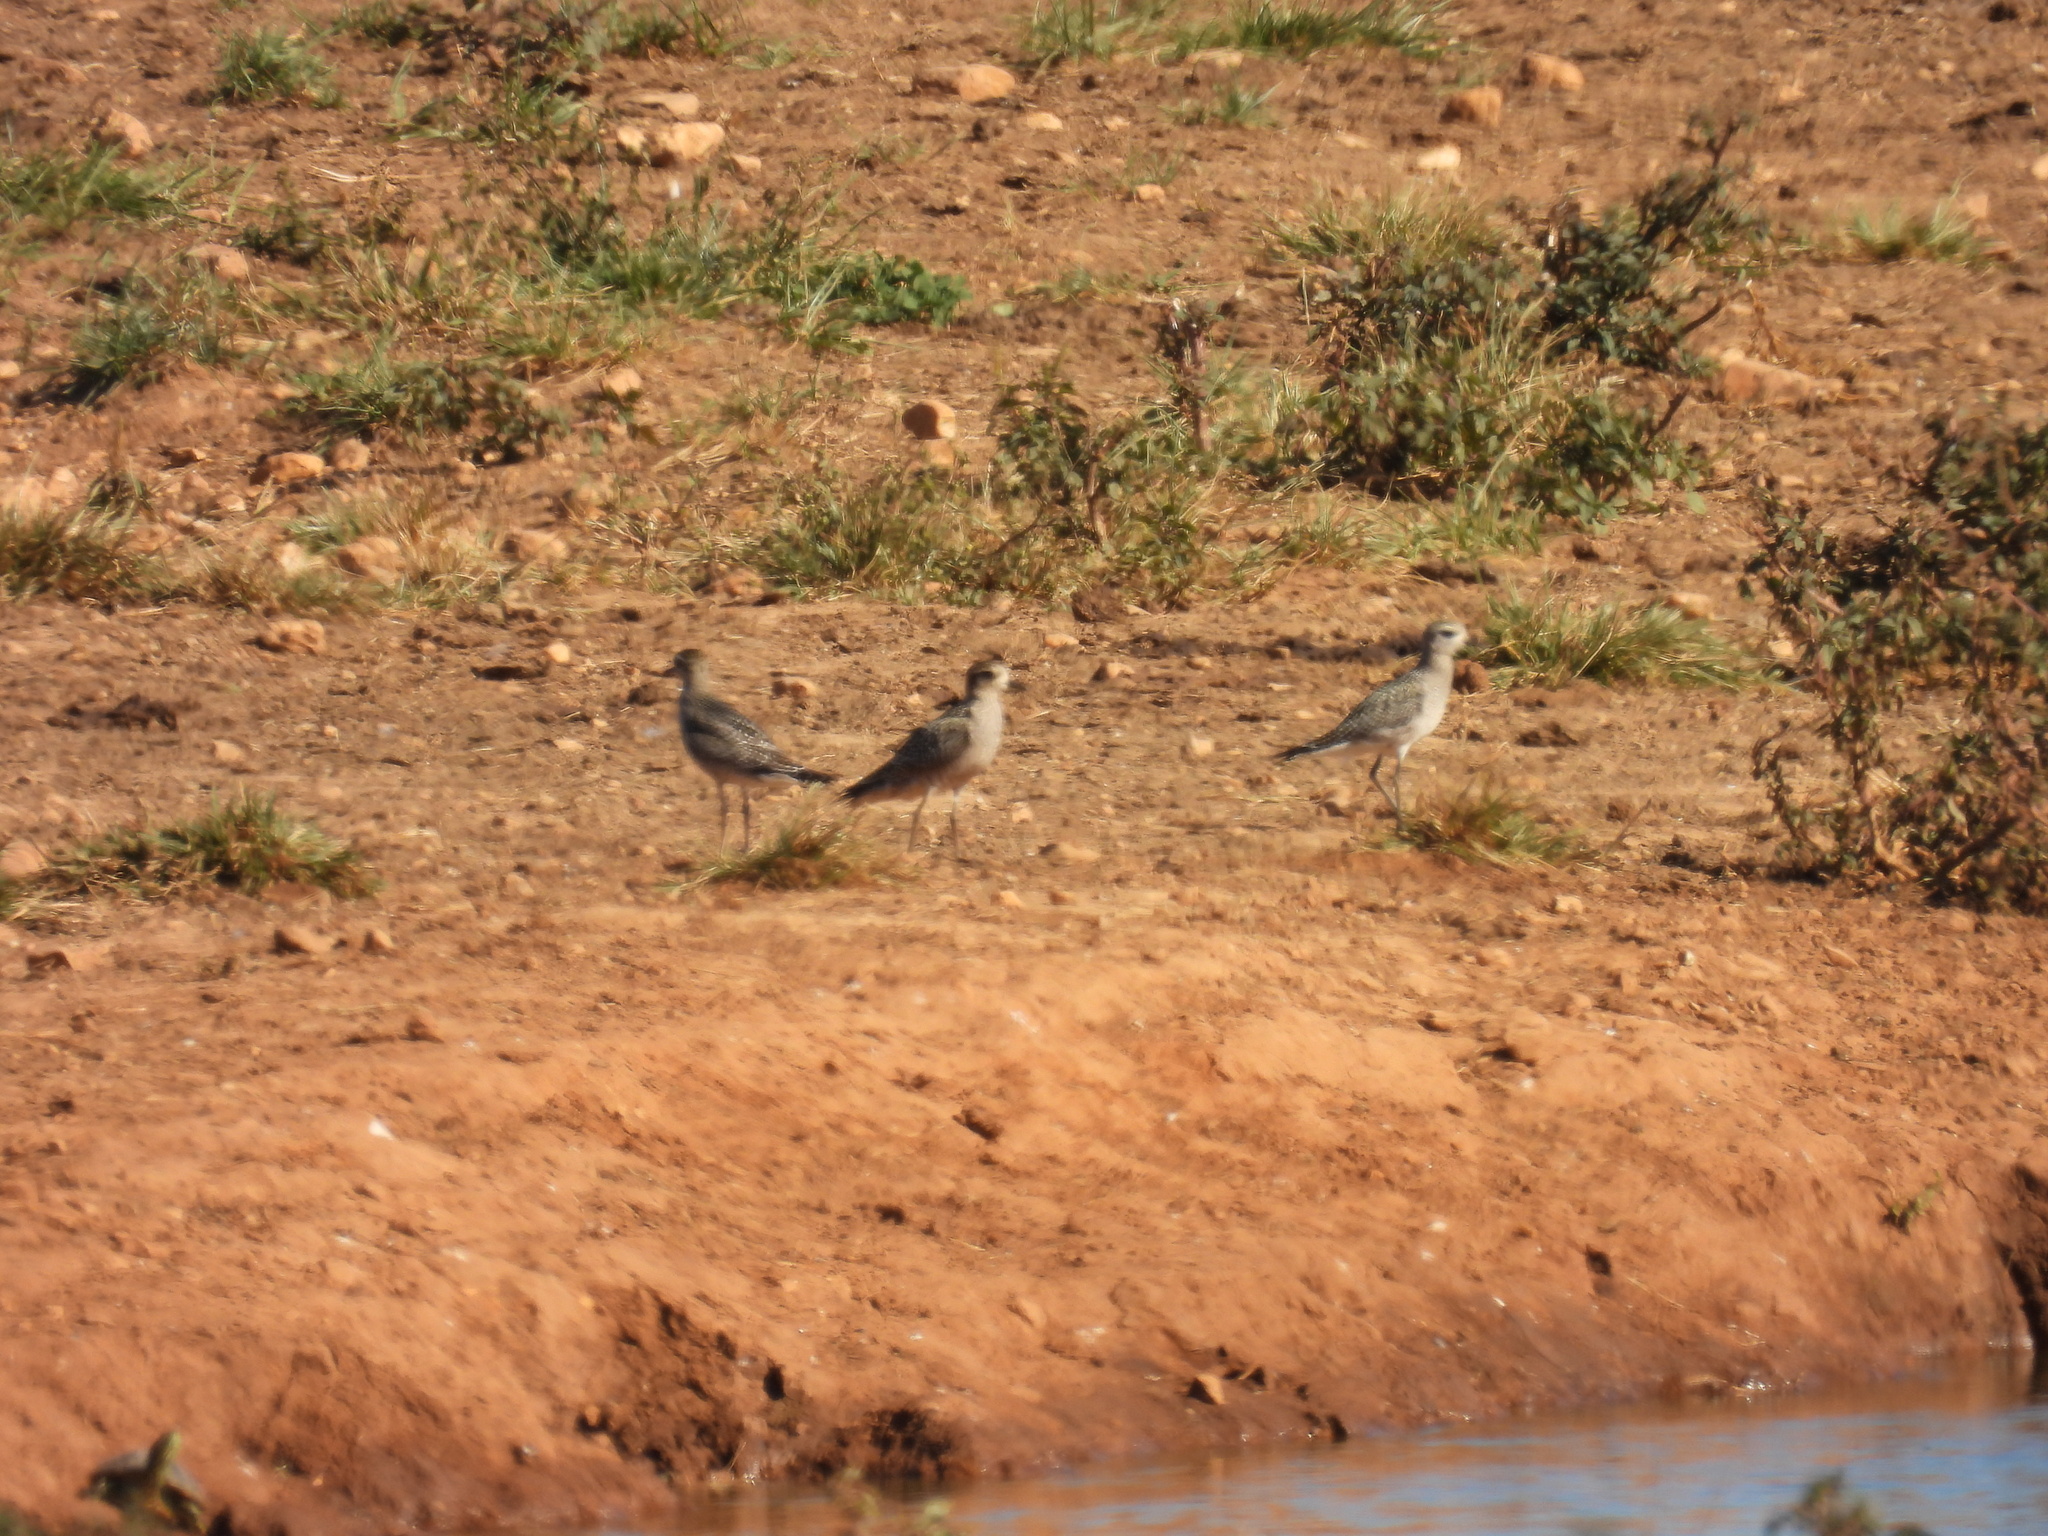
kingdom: Animalia
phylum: Chordata
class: Aves
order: Charadriiformes
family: Charadriidae
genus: Pluvialis
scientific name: Pluvialis dominica
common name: American golden plover
